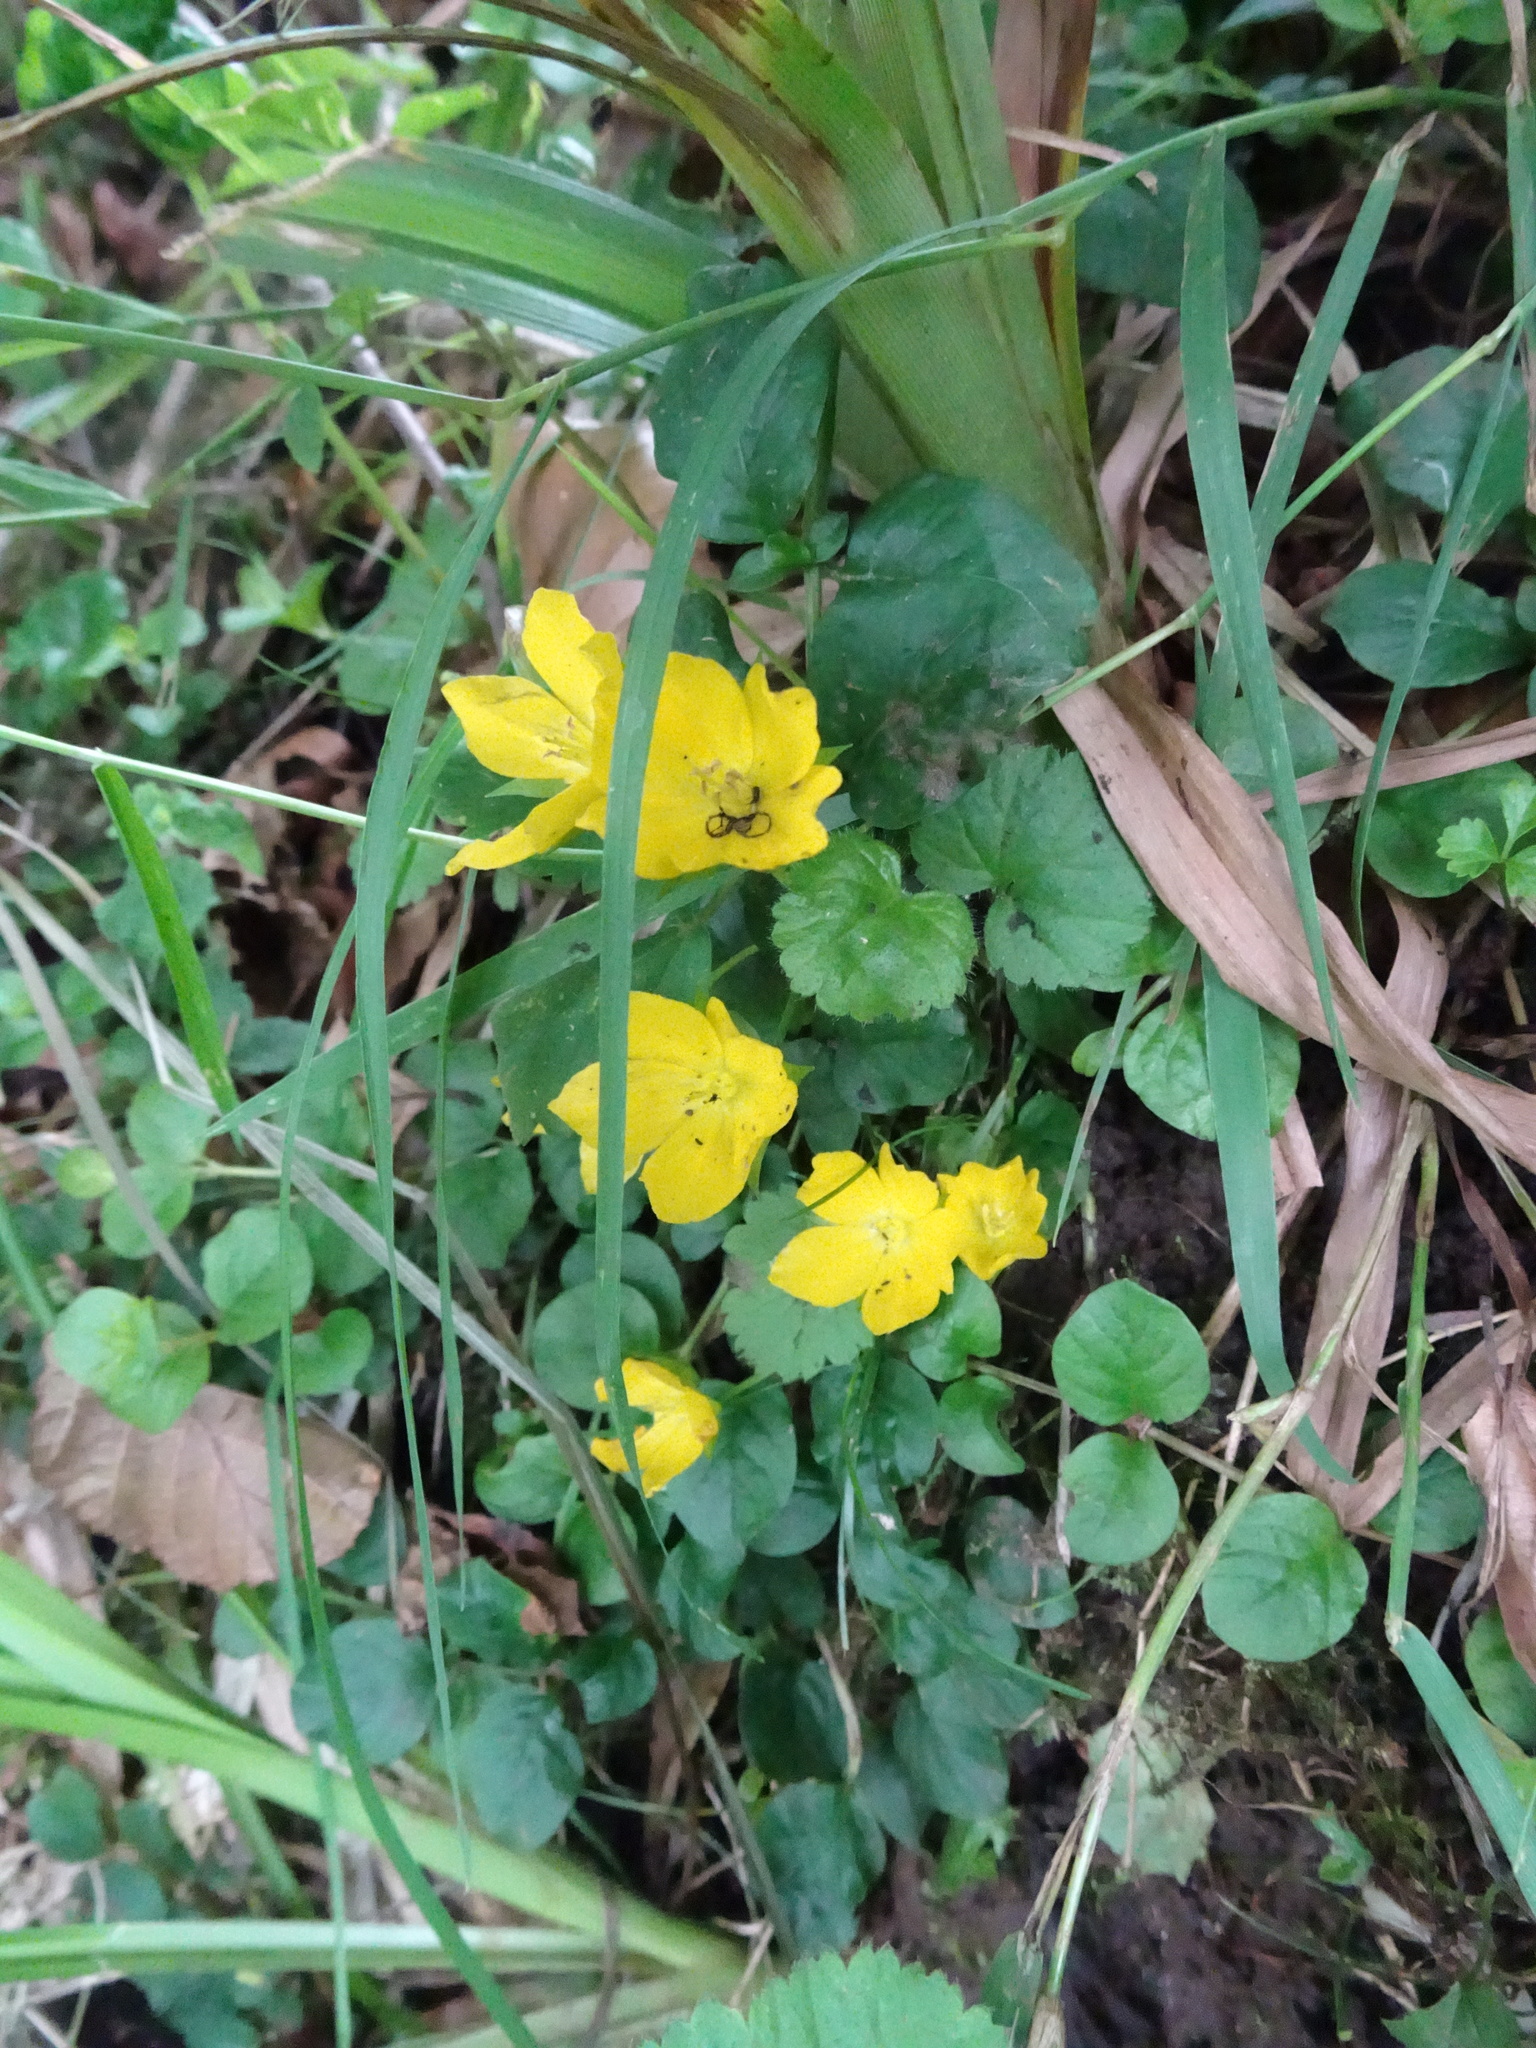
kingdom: Plantae
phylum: Tracheophyta
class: Magnoliopsida
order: Ericales
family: Primulaceae
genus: Lysimachia
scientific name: Lysimachia nummularia
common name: Moneywort
